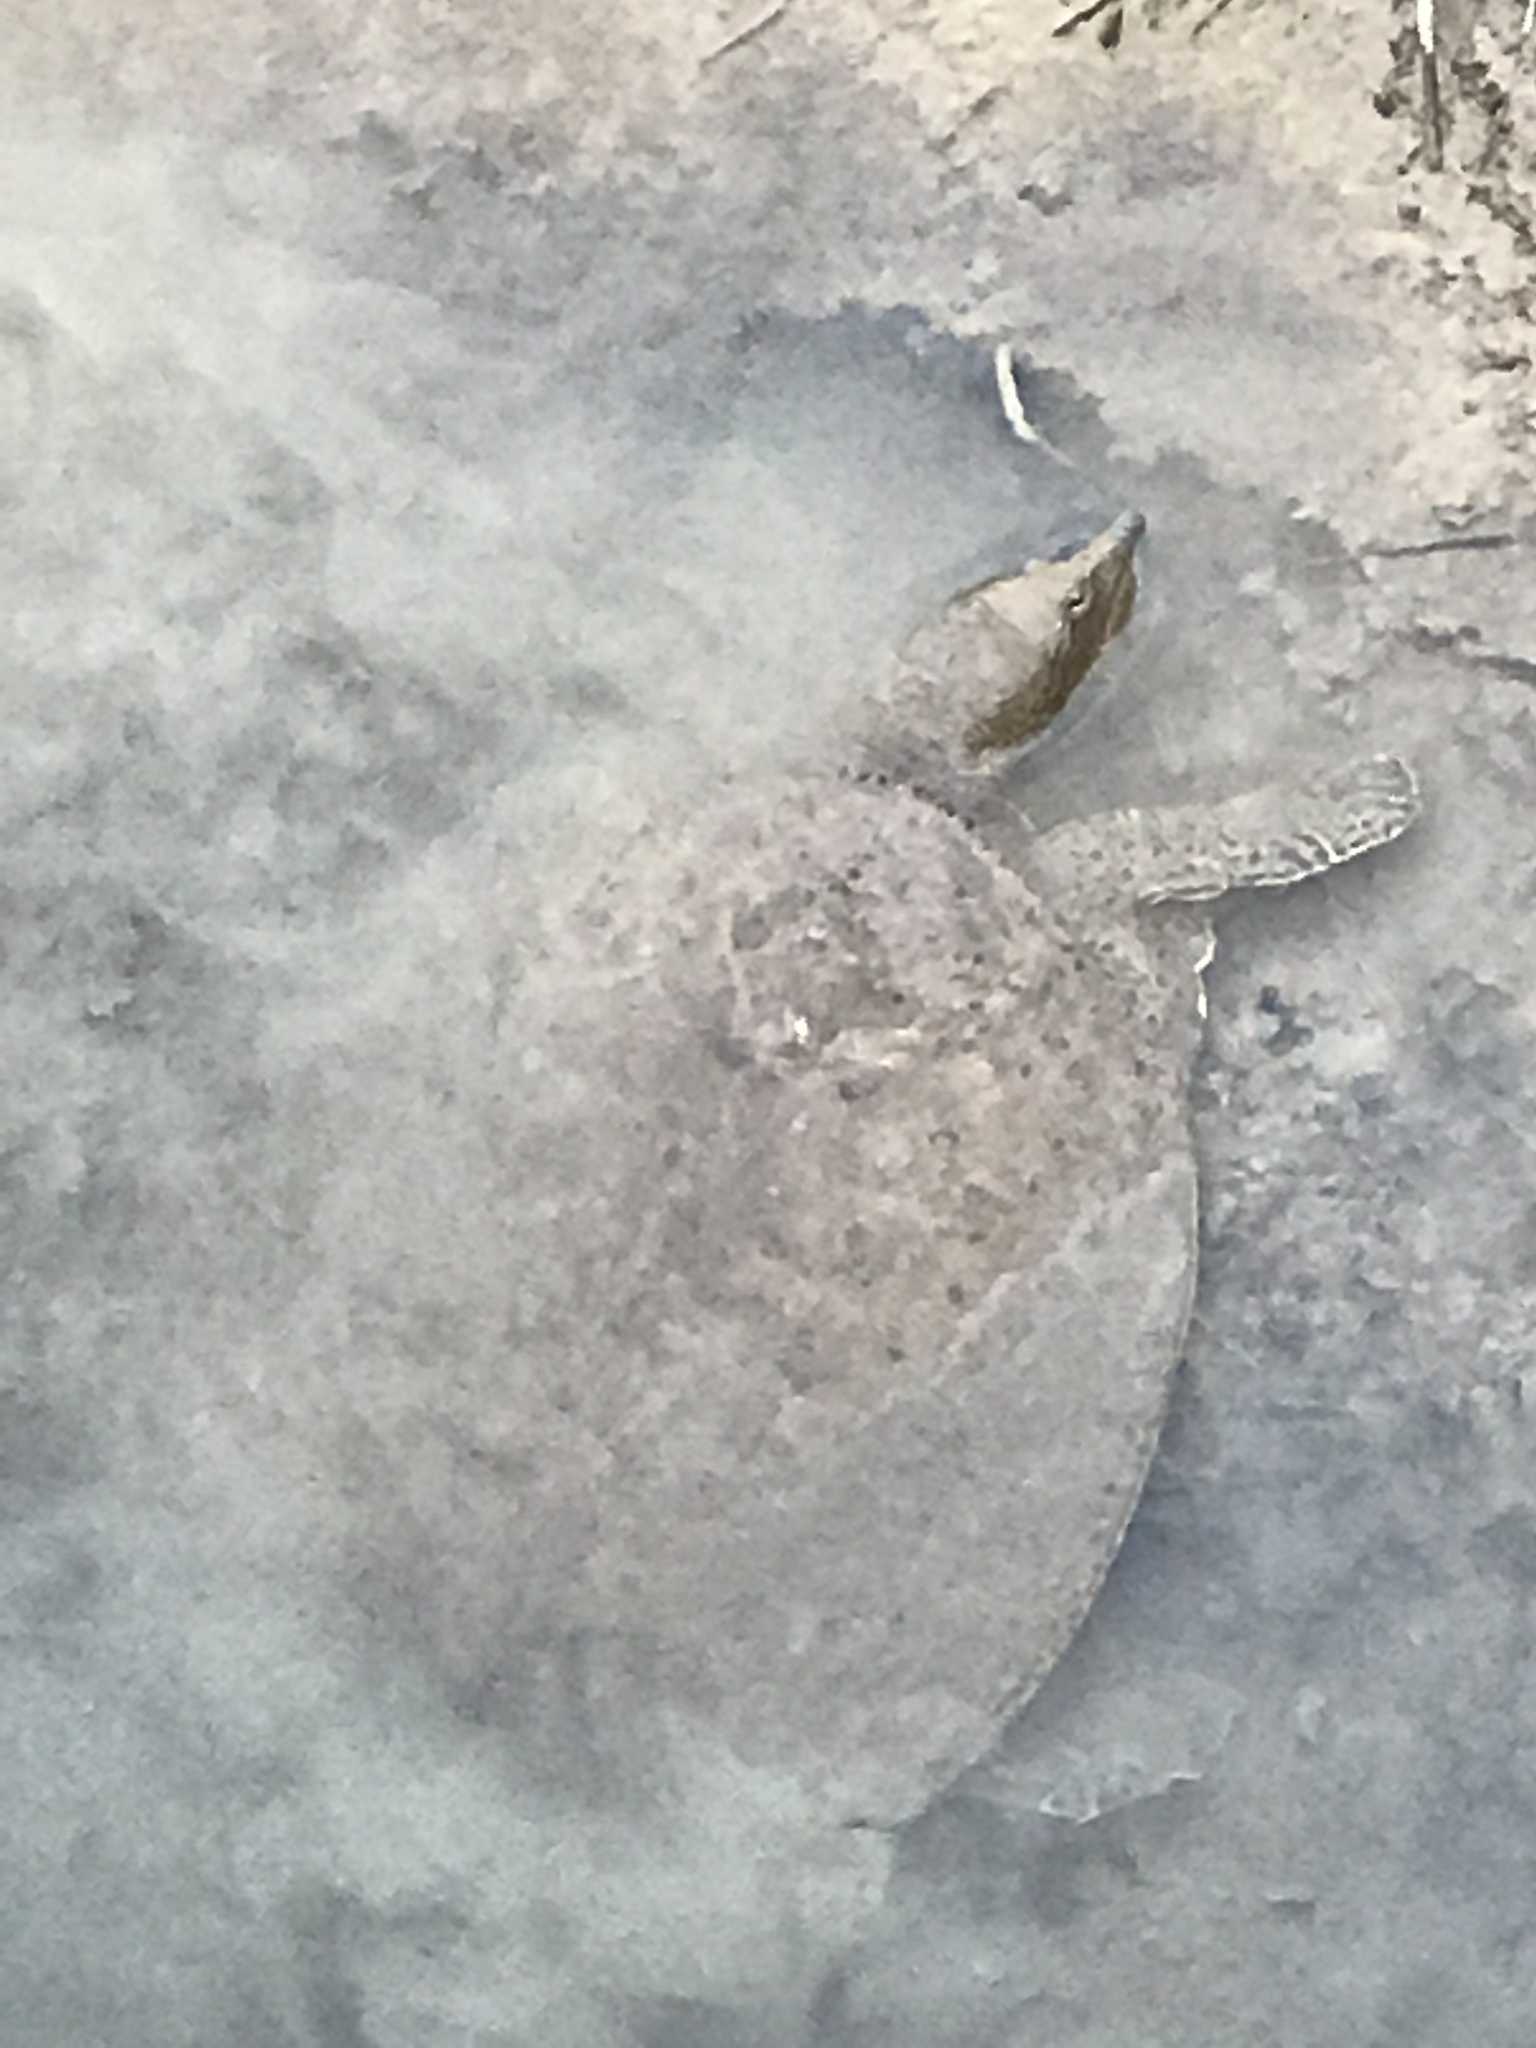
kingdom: Animalia
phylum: Chordata
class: Testudines
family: Trionychidae
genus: Apalone
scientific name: Apalone spinifera
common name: Spiny softshell turtle
